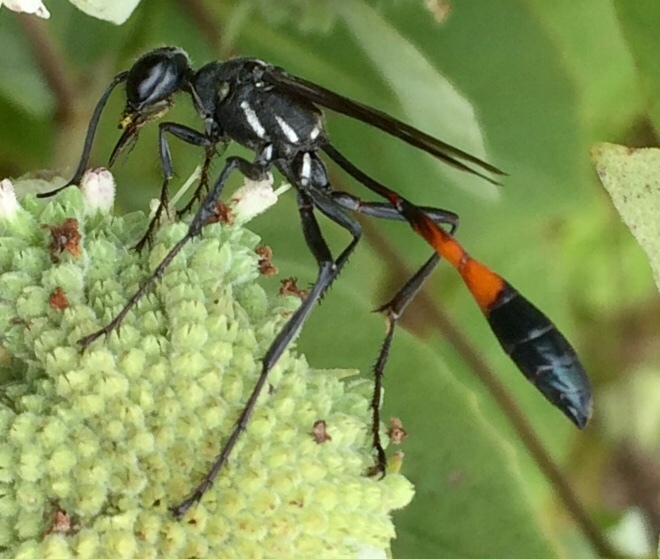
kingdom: Animalia
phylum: Arthropoda
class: Insecta
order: Hymenoptera
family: Sphecidae
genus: Ammophila
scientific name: Ammophila procera
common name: Common thread-waisted wasp
